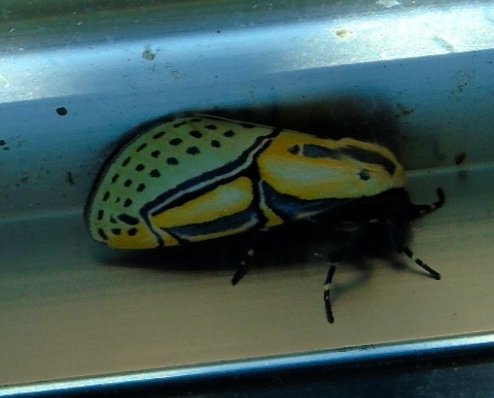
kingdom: Animalia
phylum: Arthropoda
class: Insecta
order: Lepidoptera
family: Erebidae
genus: Diphthera
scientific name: Diphthera festiva
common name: Hieroglyphic moth
